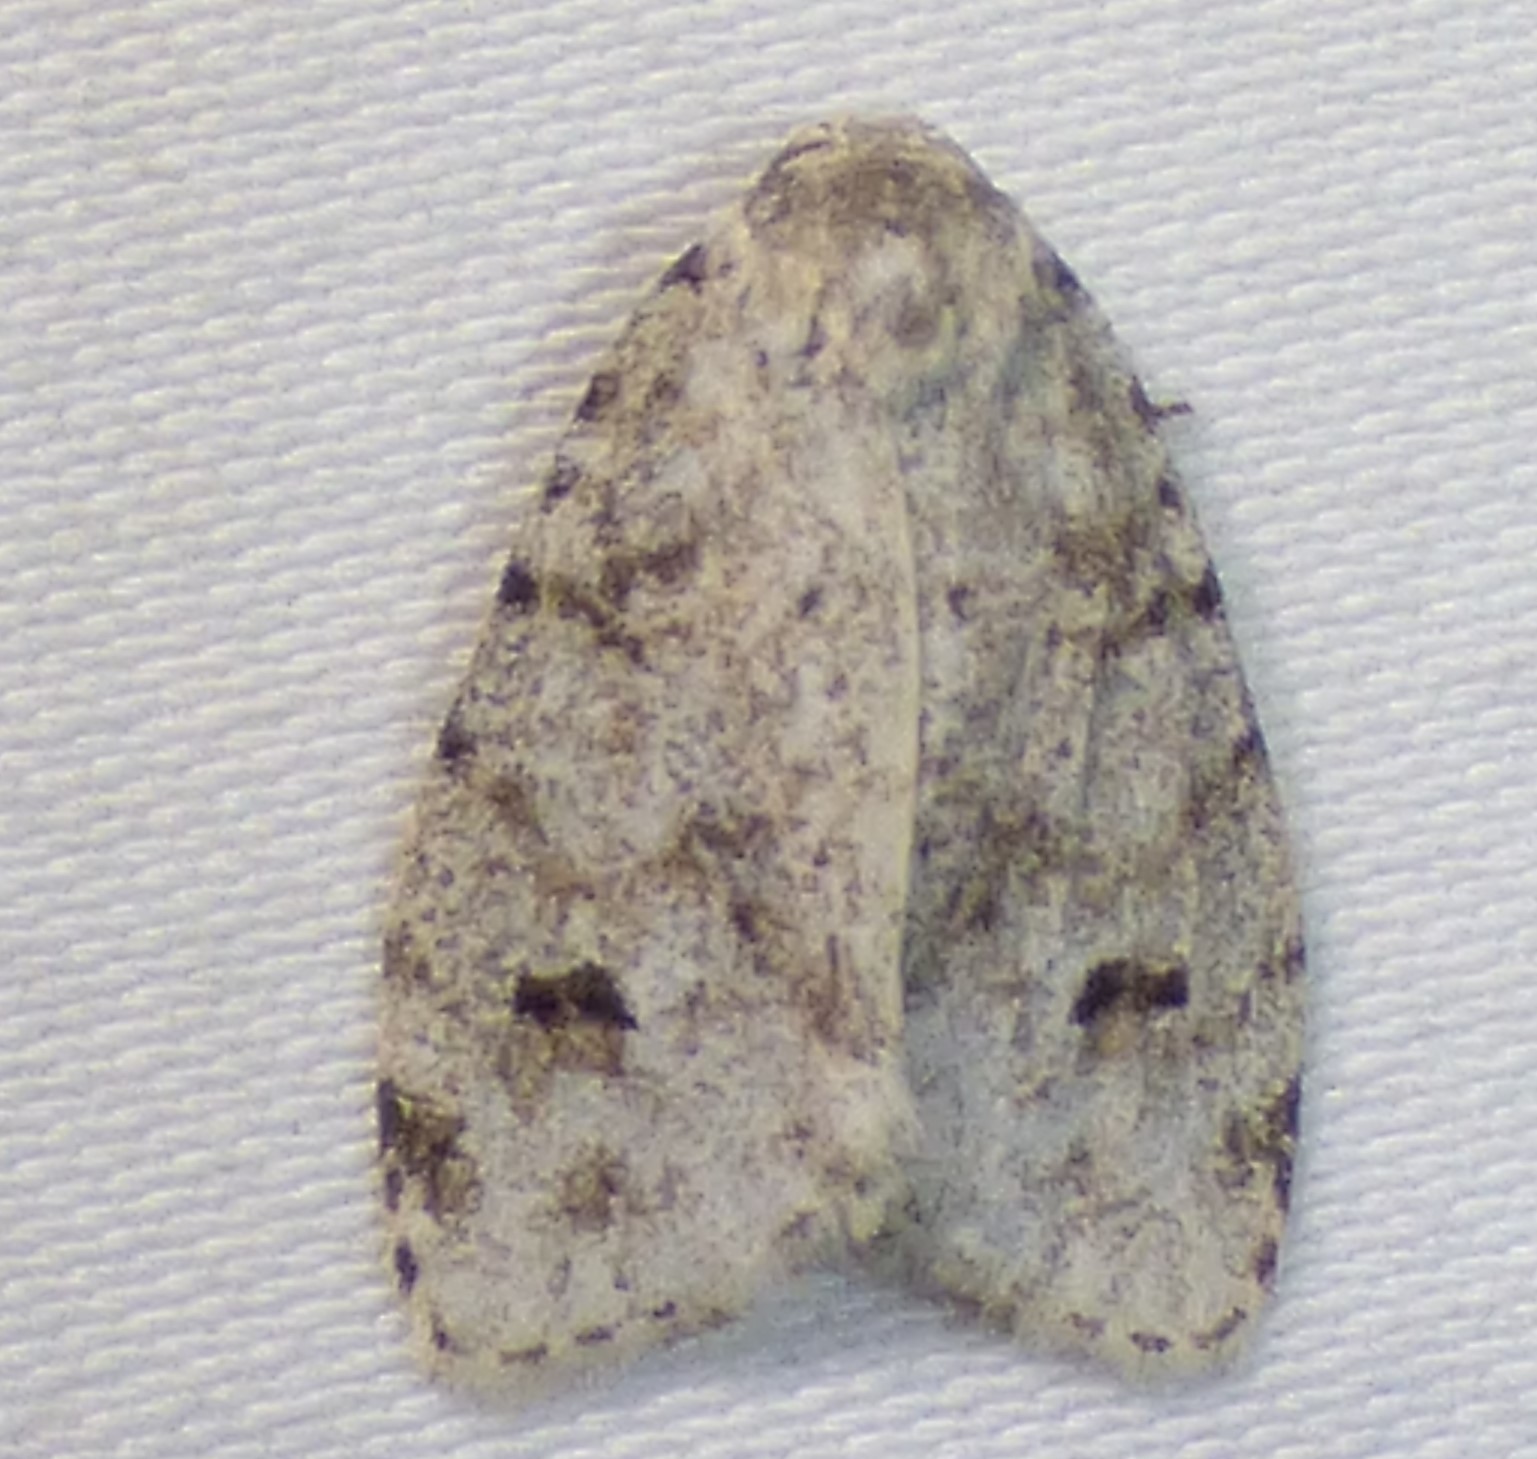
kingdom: Animalia
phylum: Arthropoda
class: Insecta
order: Lepidoptera
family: Erebidae
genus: Clemensia
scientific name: Clemensia albata
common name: Little white lichen moth
